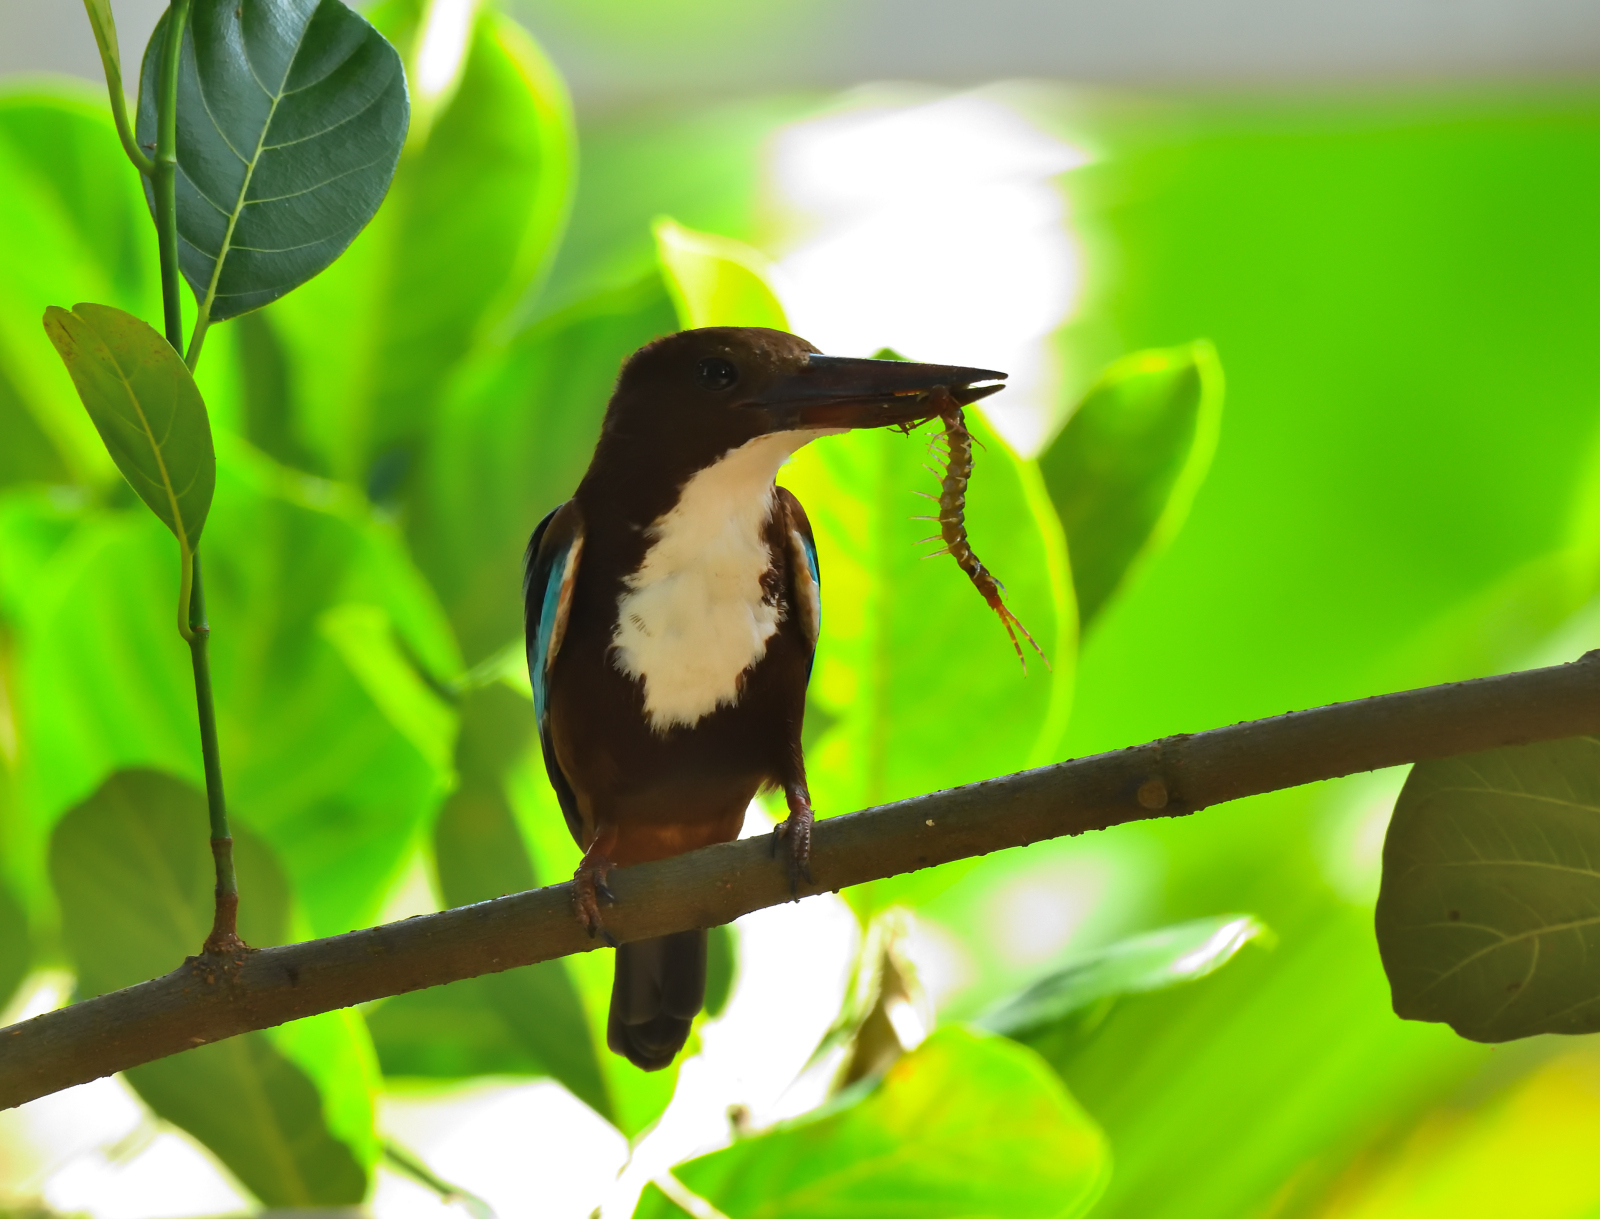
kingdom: Animalia
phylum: Chordata
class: Aves
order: Coraciiformes
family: Alcedinidae
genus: Halcyon
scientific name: Halcyon smyrnensis
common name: White-throated kingfisher
